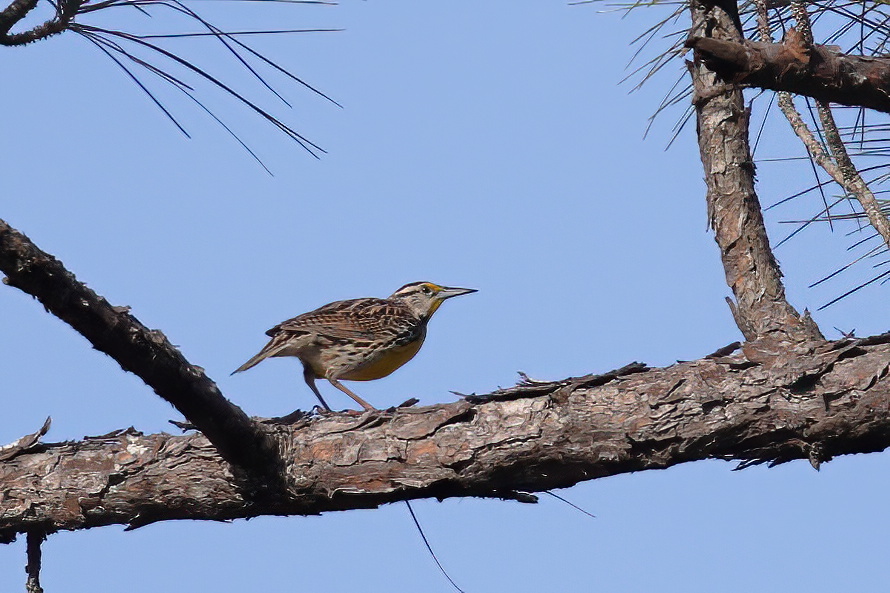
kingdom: Animalia
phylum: Chordata
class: Aves
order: Passeriformes
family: Icteridae
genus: Sturnella
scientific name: Sturnella magna
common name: Eastern meadowlark
